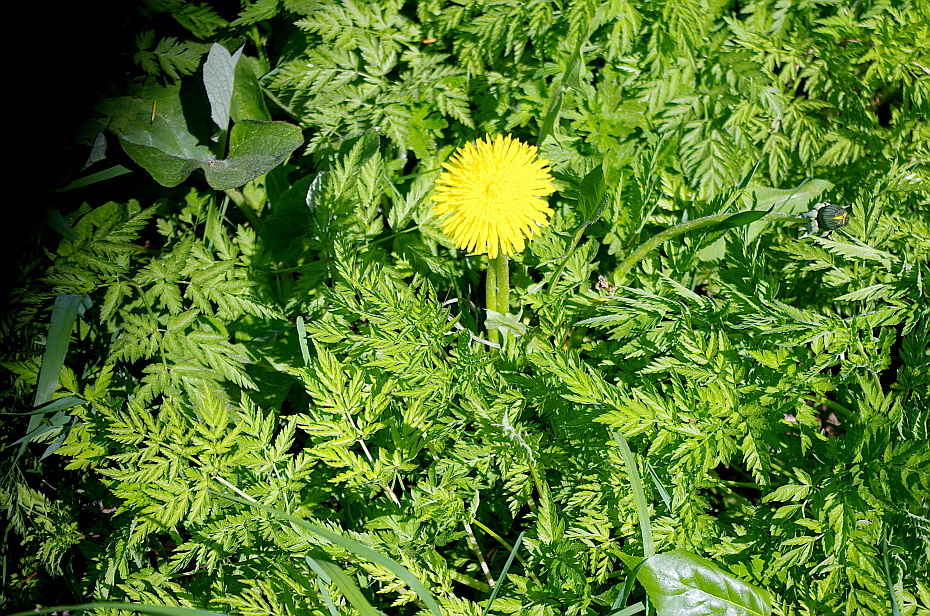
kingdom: Plantae
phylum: Tracheophyta
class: Magnoliopsida
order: Asterales
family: Asteraceae
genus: Taraxacum
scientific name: Taraxacum officinale
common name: Common dandelion
